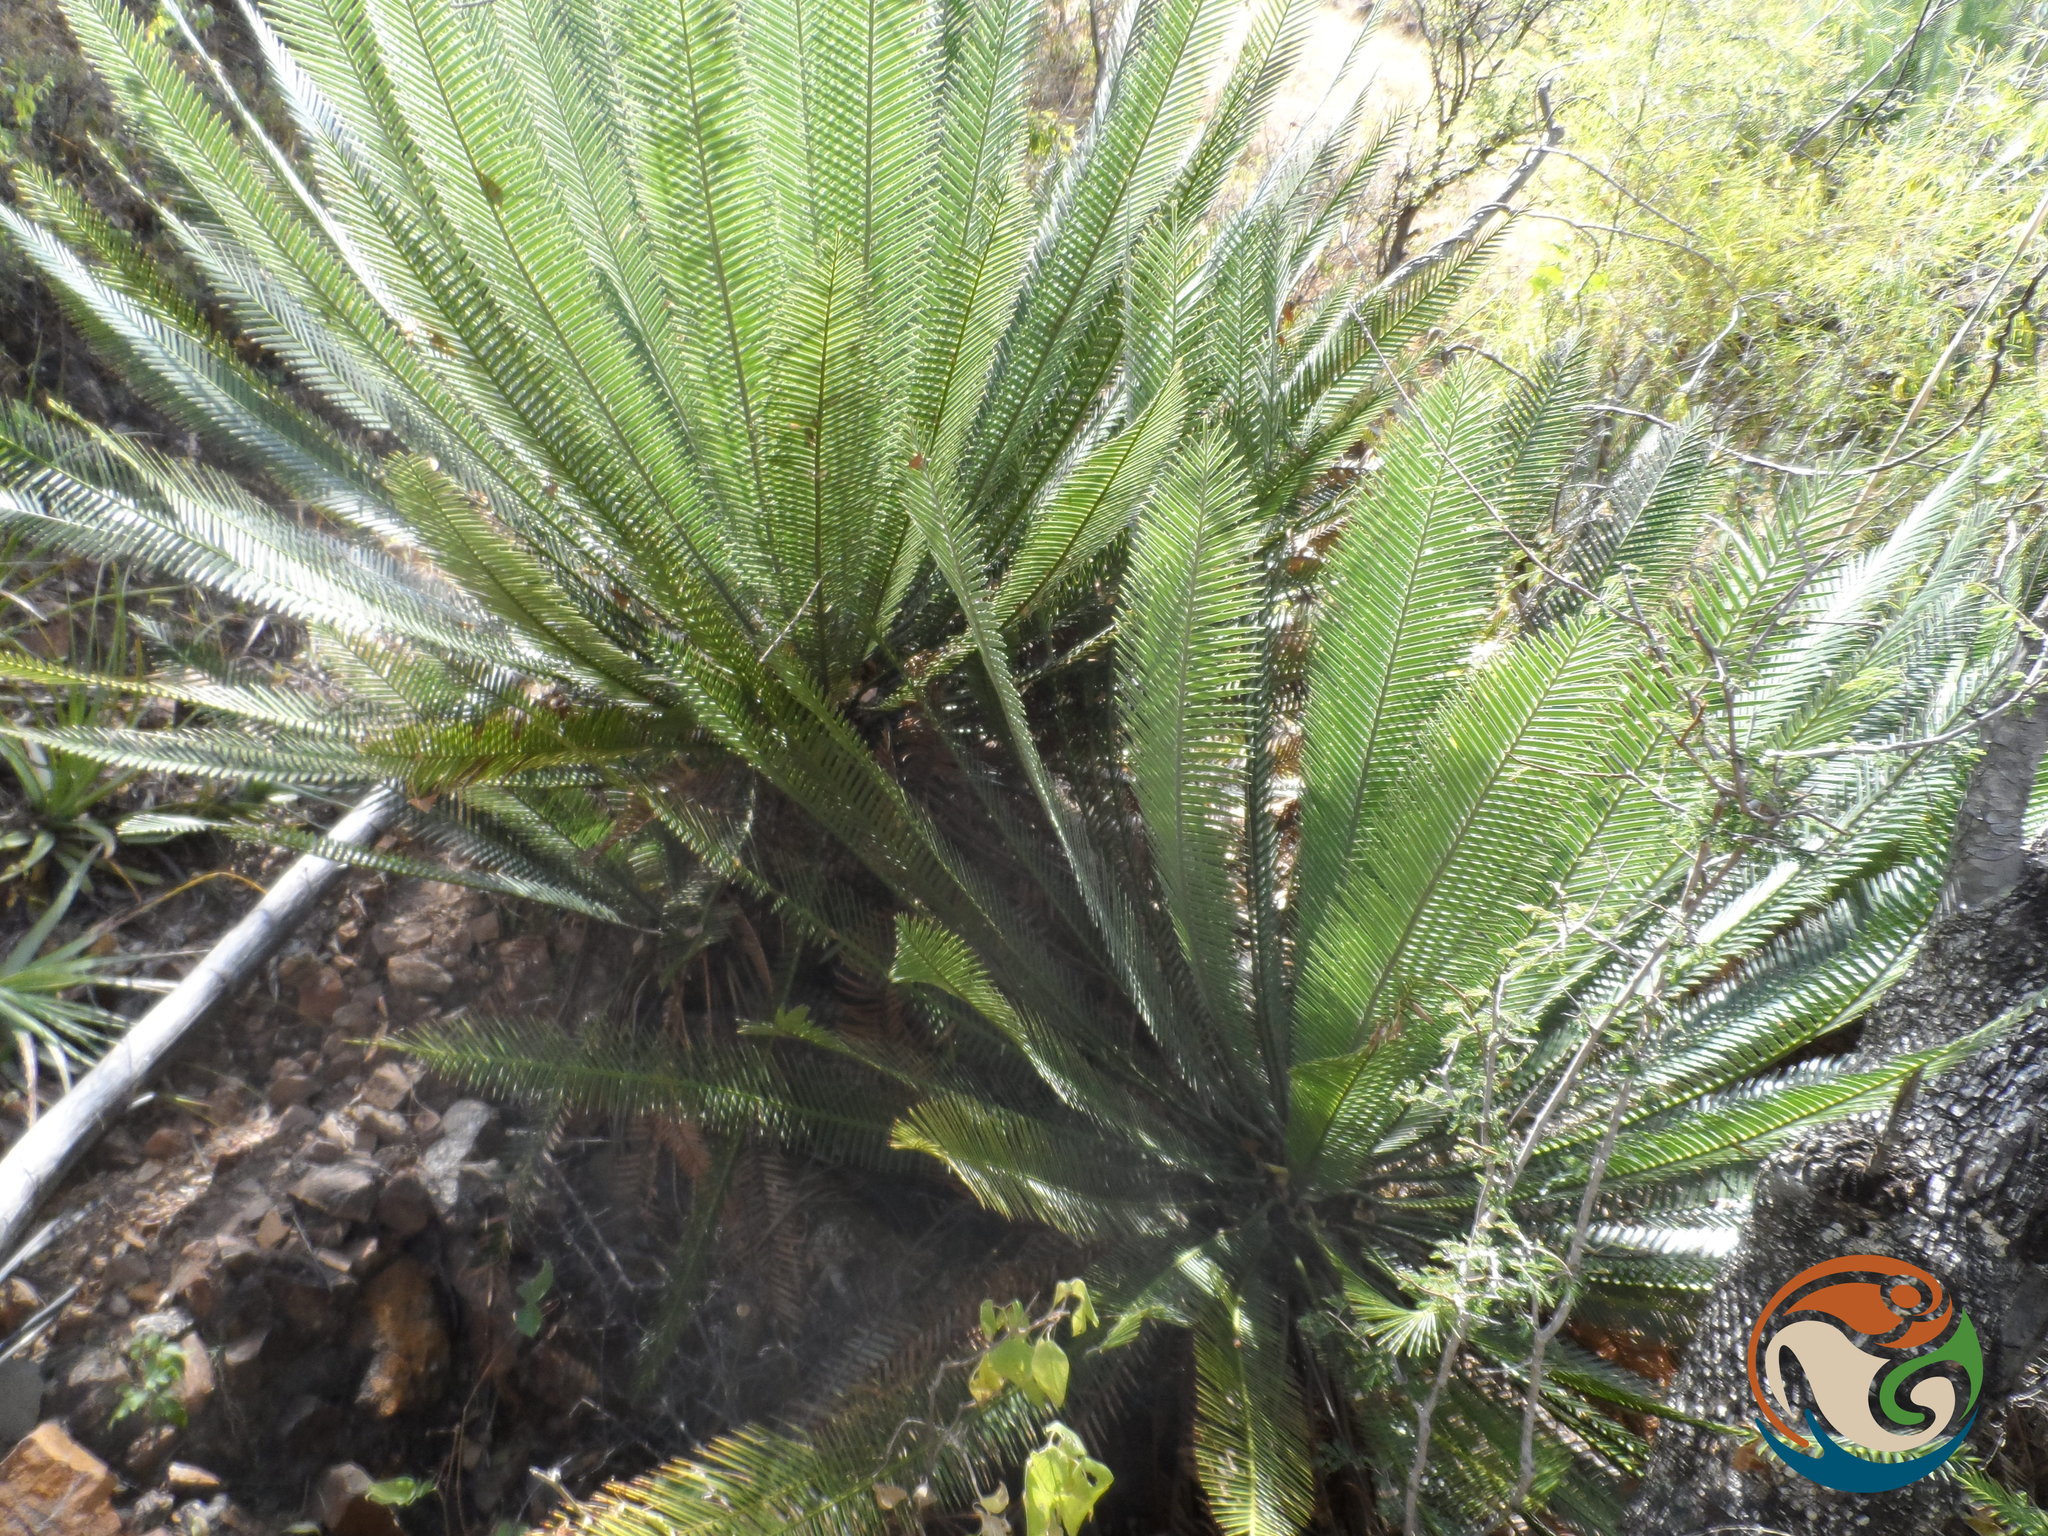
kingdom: Plantae
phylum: Tracheophyta
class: Cycadopsida
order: Cycadales
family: Zamiaceae
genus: Dioon
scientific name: Dioon planifolium
